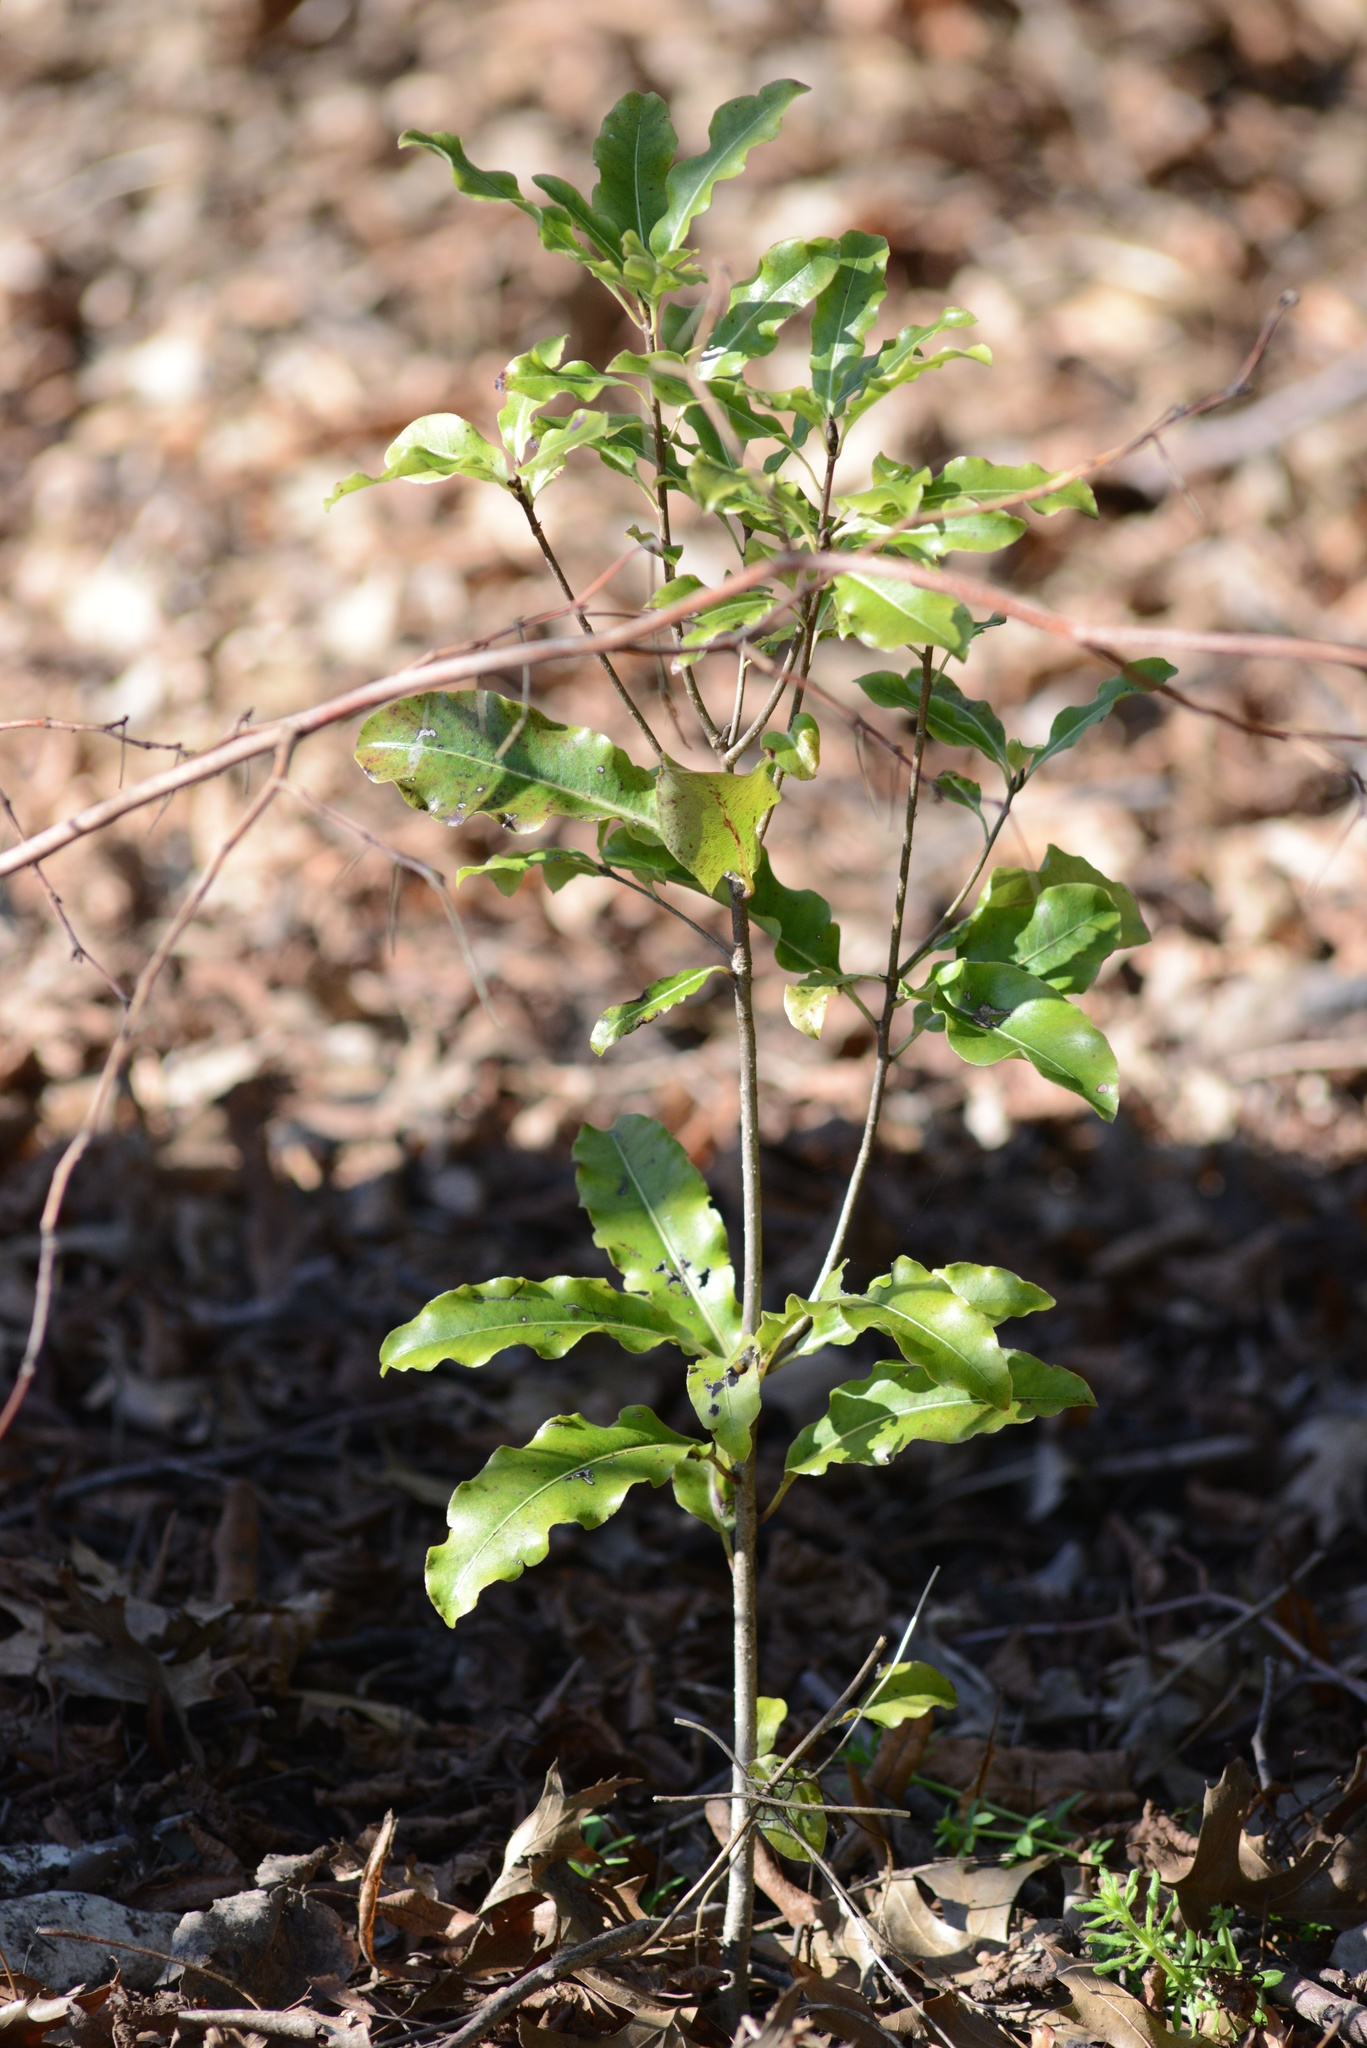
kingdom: Plantae
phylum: Tracheophyta
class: Magnoliopsida
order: Apiales
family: Pittosporaceae
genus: Pittosporum
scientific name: Pittosporum eugenioides
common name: Lemonwood
